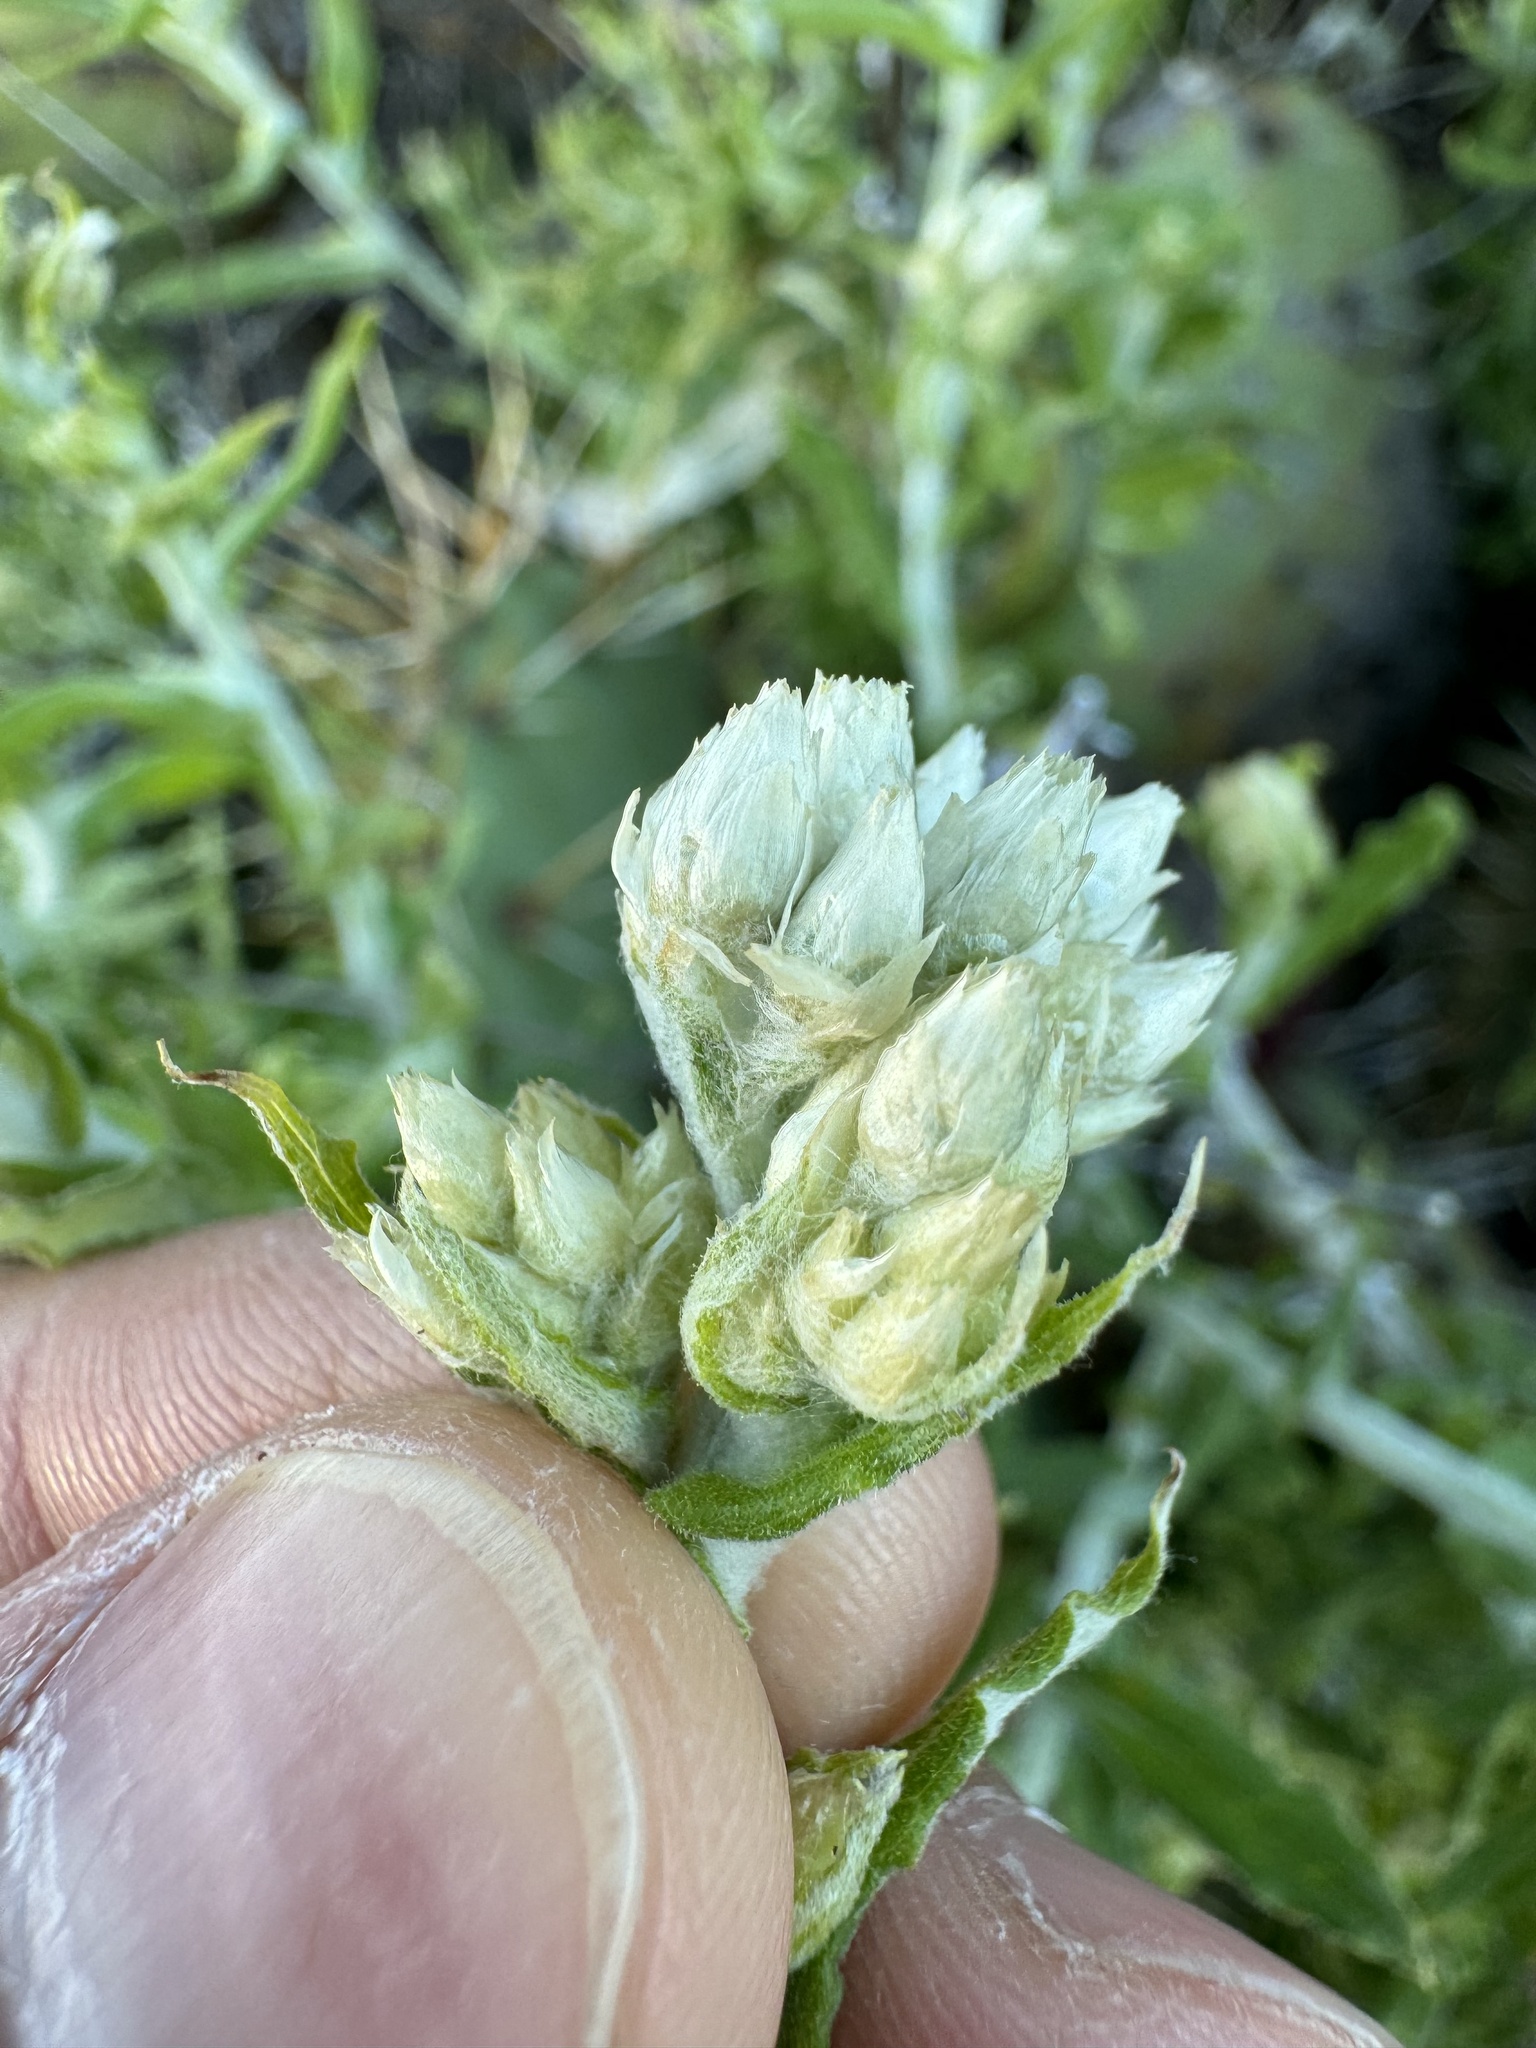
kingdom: Plantae
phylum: Tracheophyta
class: Magnoliopsida
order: Asterales
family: Asteraceae
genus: Pseudognaphalium
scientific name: Pseudognaphalium biolettii
